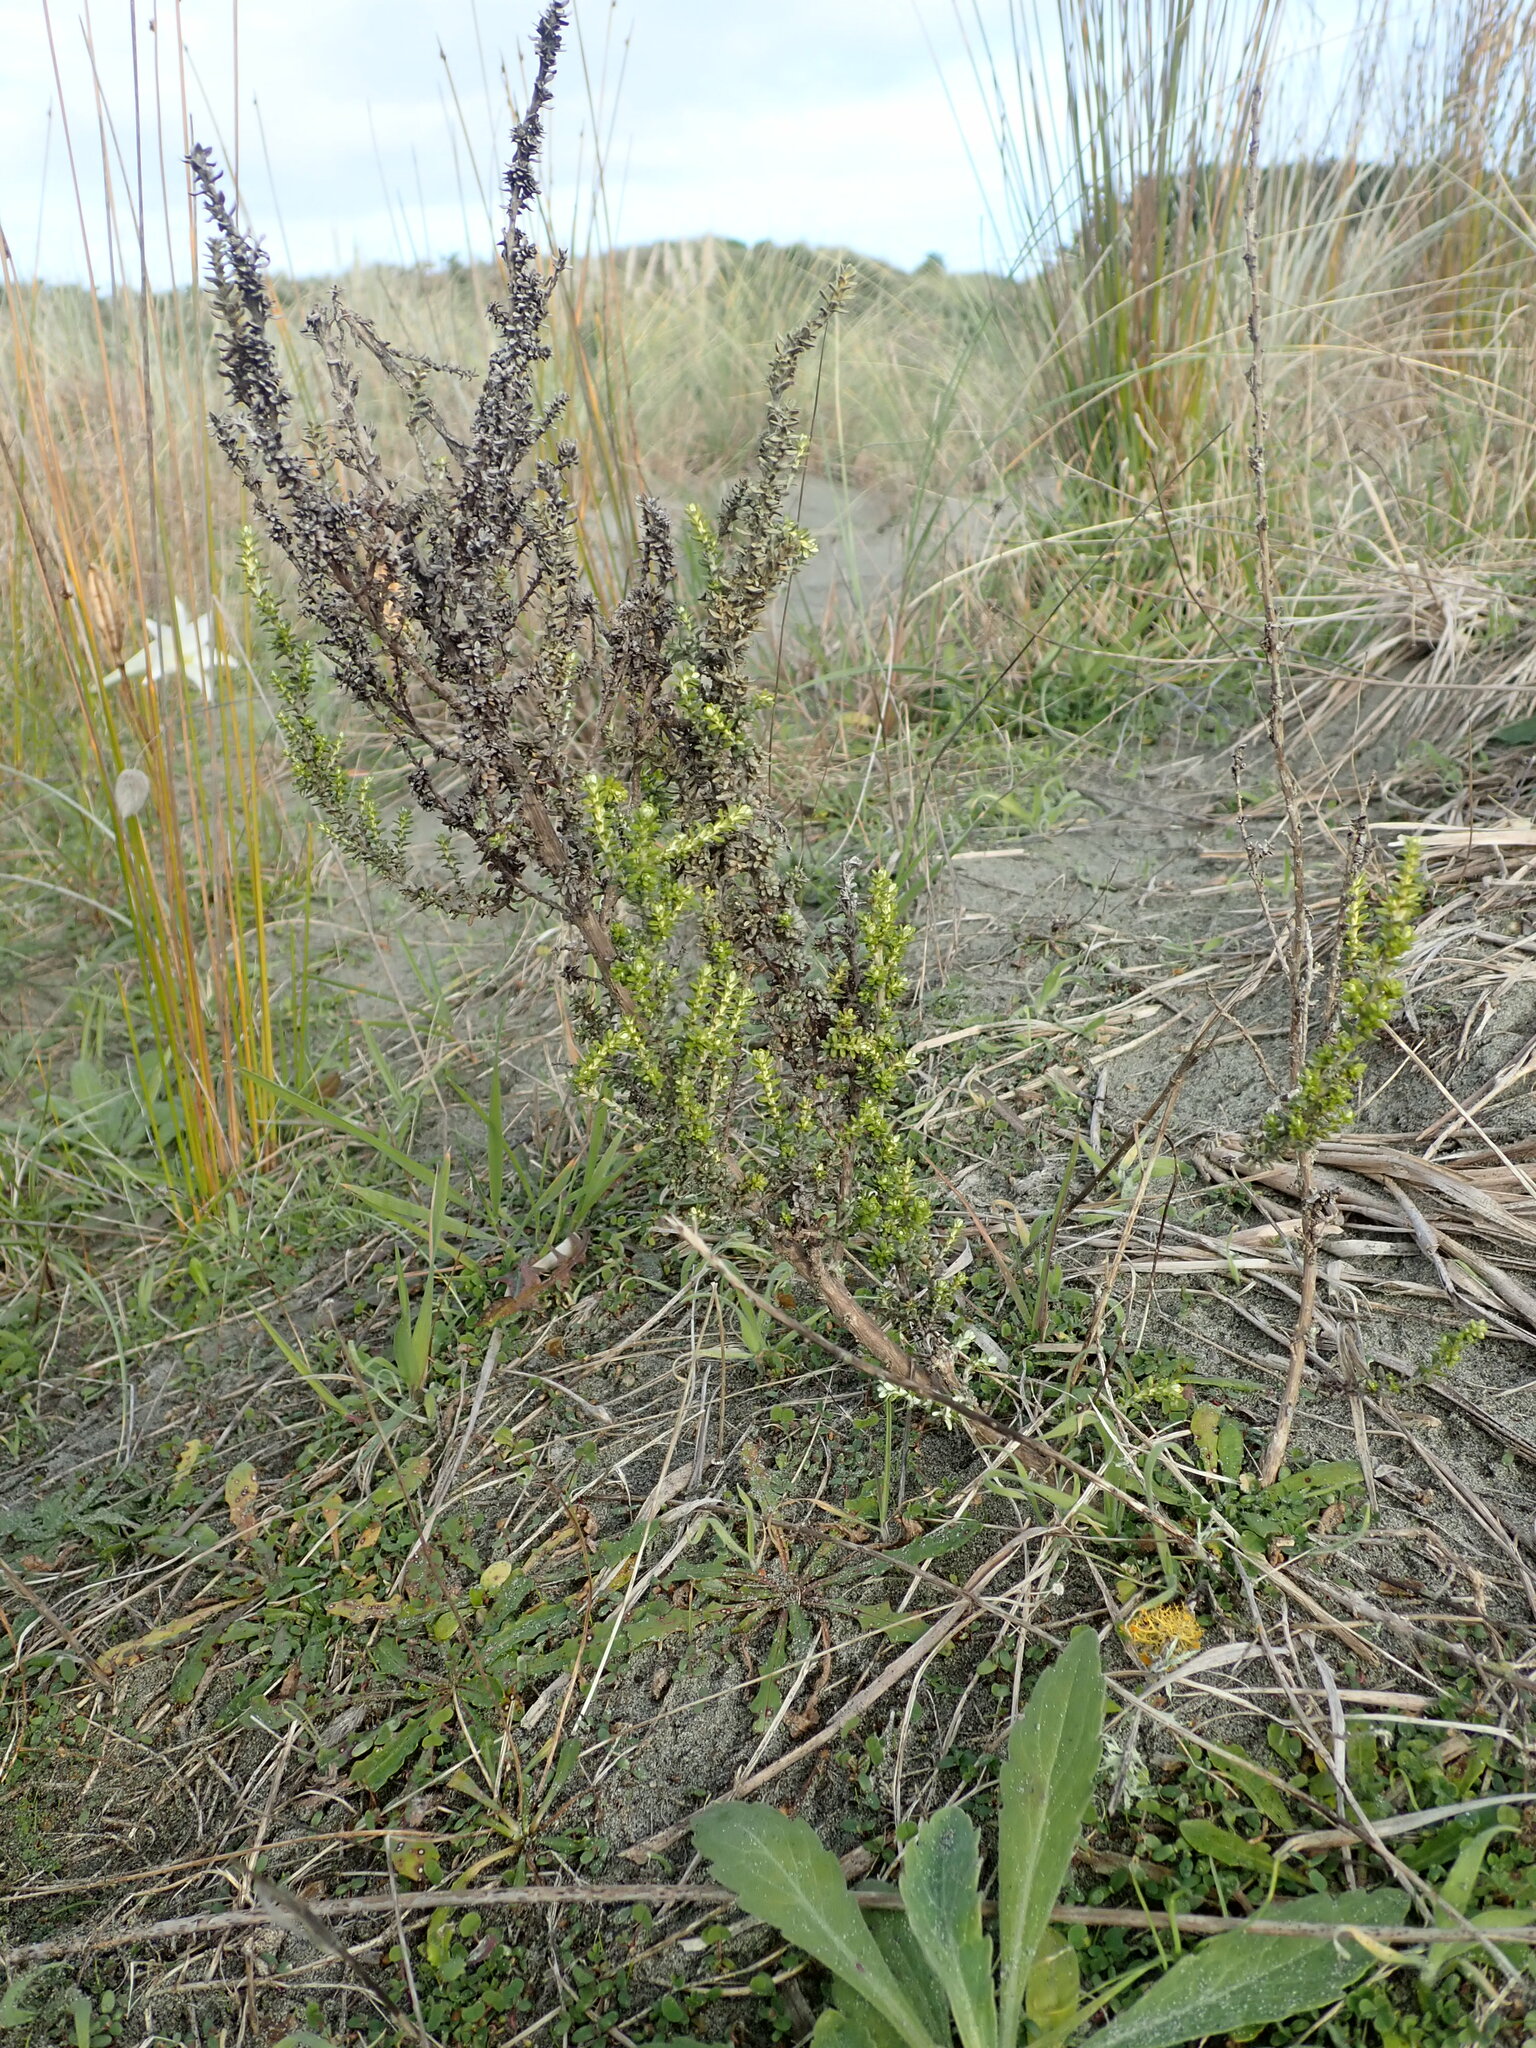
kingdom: Plantae
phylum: Tracheophyta
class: Magnoliopsida
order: Asterales
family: Asteraceae
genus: Ozothamnus
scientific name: Ozothamnus leptophyllus
